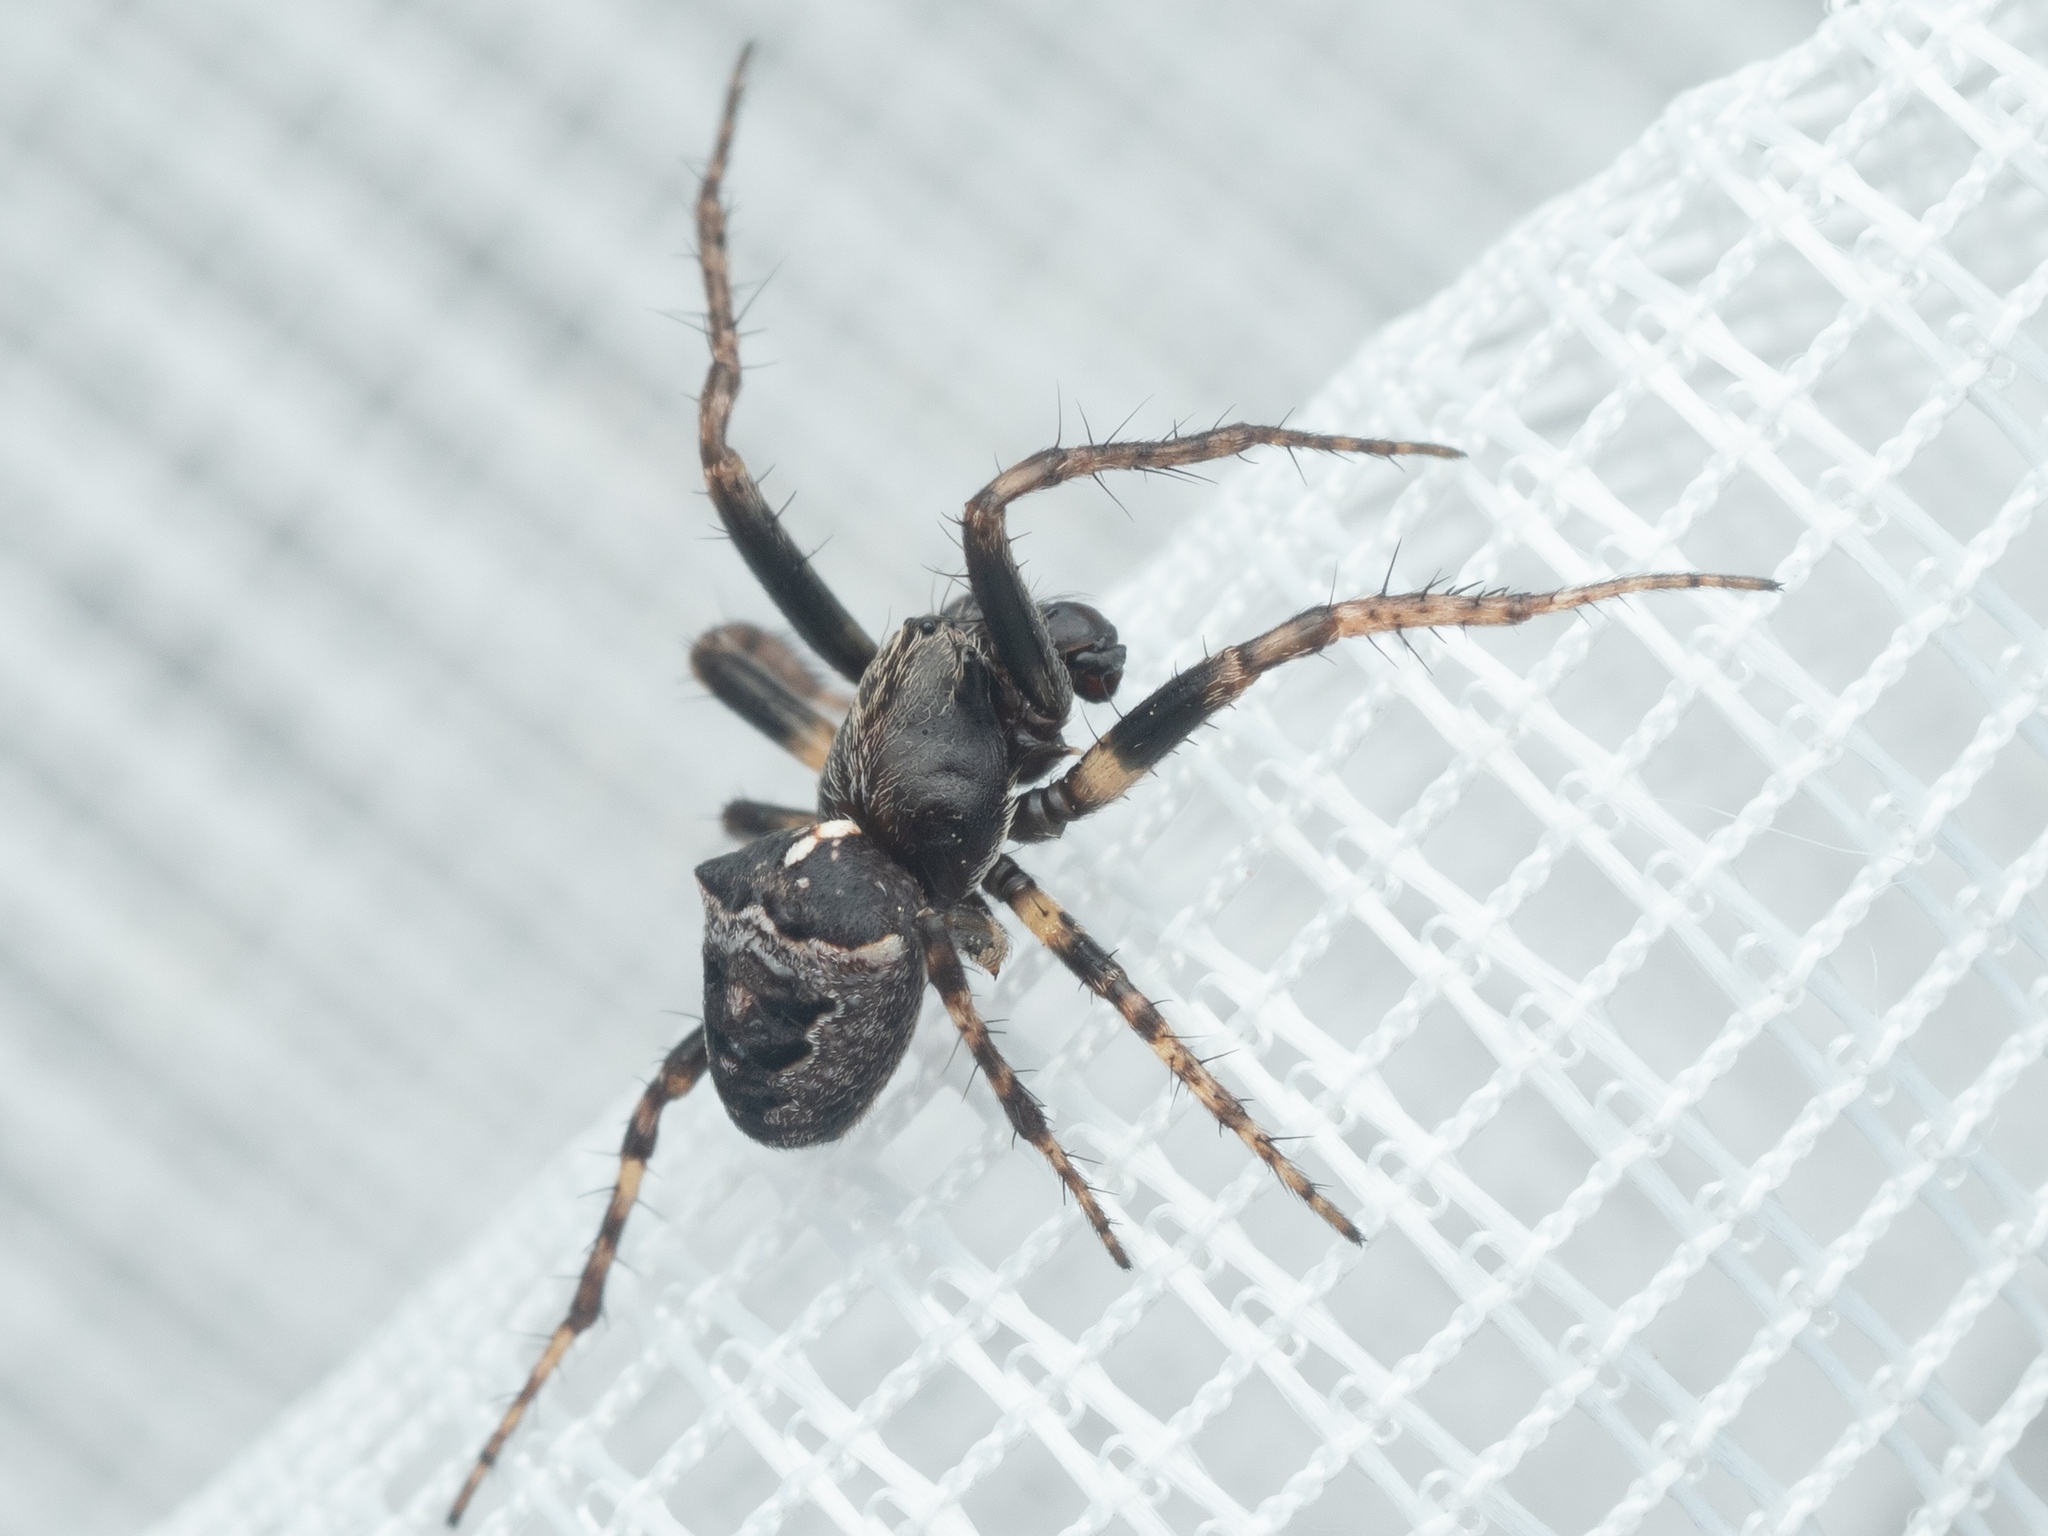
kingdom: Animalia
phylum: Arthropoda
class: Arachnida
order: Araneae
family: Araneidae
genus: Gibbaranea
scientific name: Gibbaranea bituberculata
